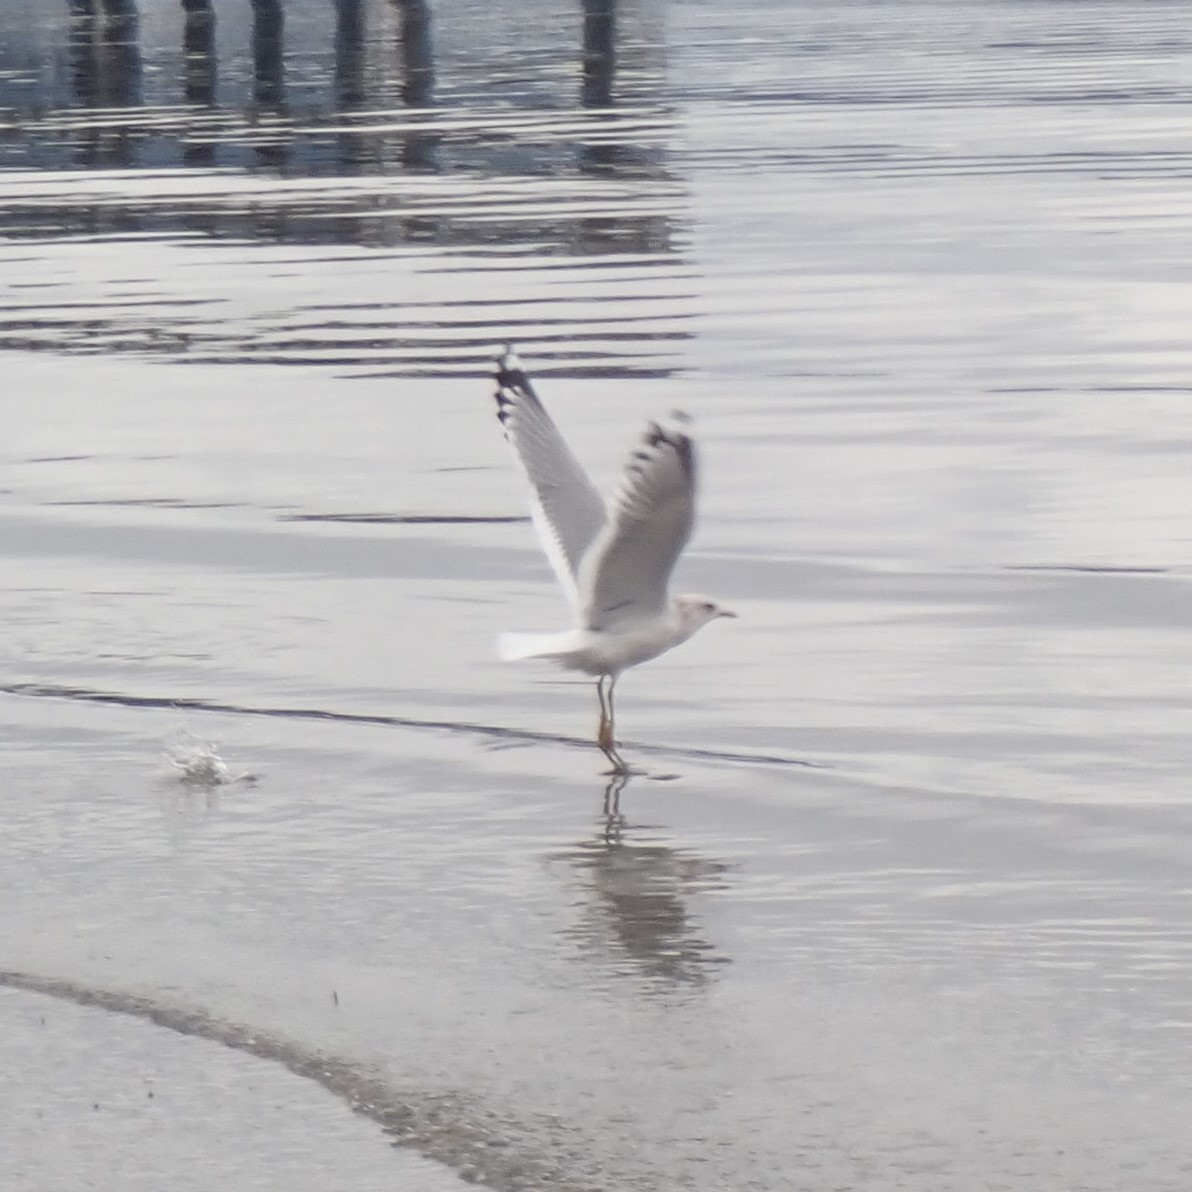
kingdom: Animalia
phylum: Chordata
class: Aves
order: Charadriiformes
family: Laridae
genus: Larus
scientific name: Larus brachyrhynchus
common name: Short-billed gull
